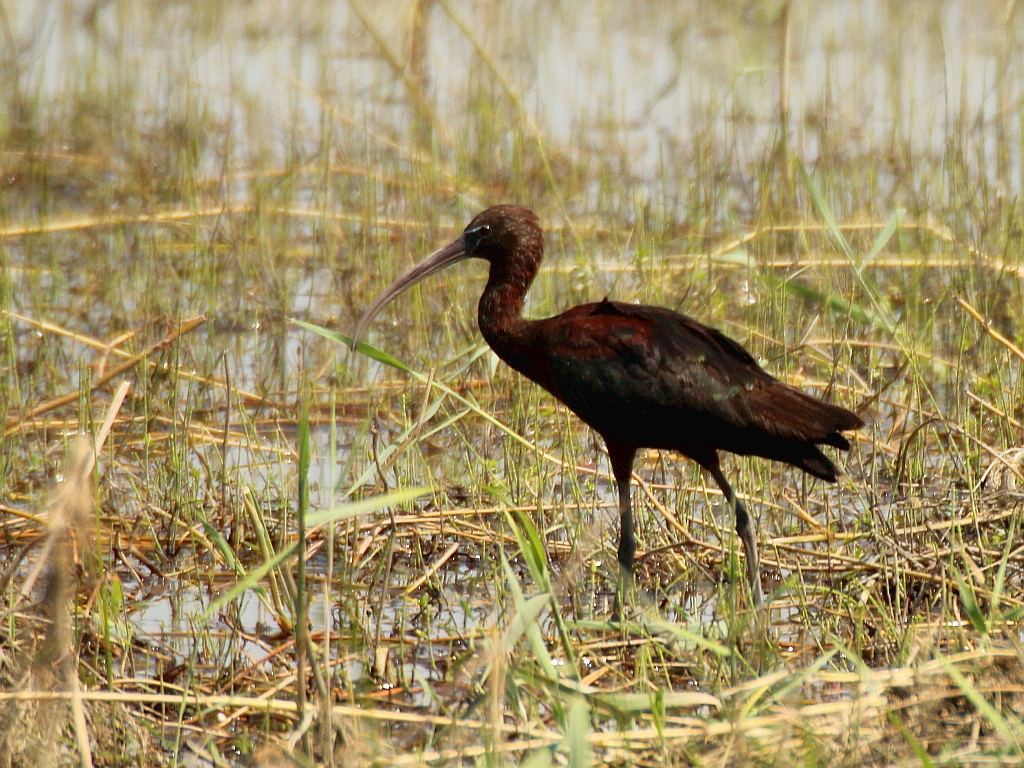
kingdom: Animalia
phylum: Chordata
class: Aves
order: Pelecaniformes
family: Threskiornithidae
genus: Plegadis
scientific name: Plegadis falcinellus
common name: Glossy ibis
